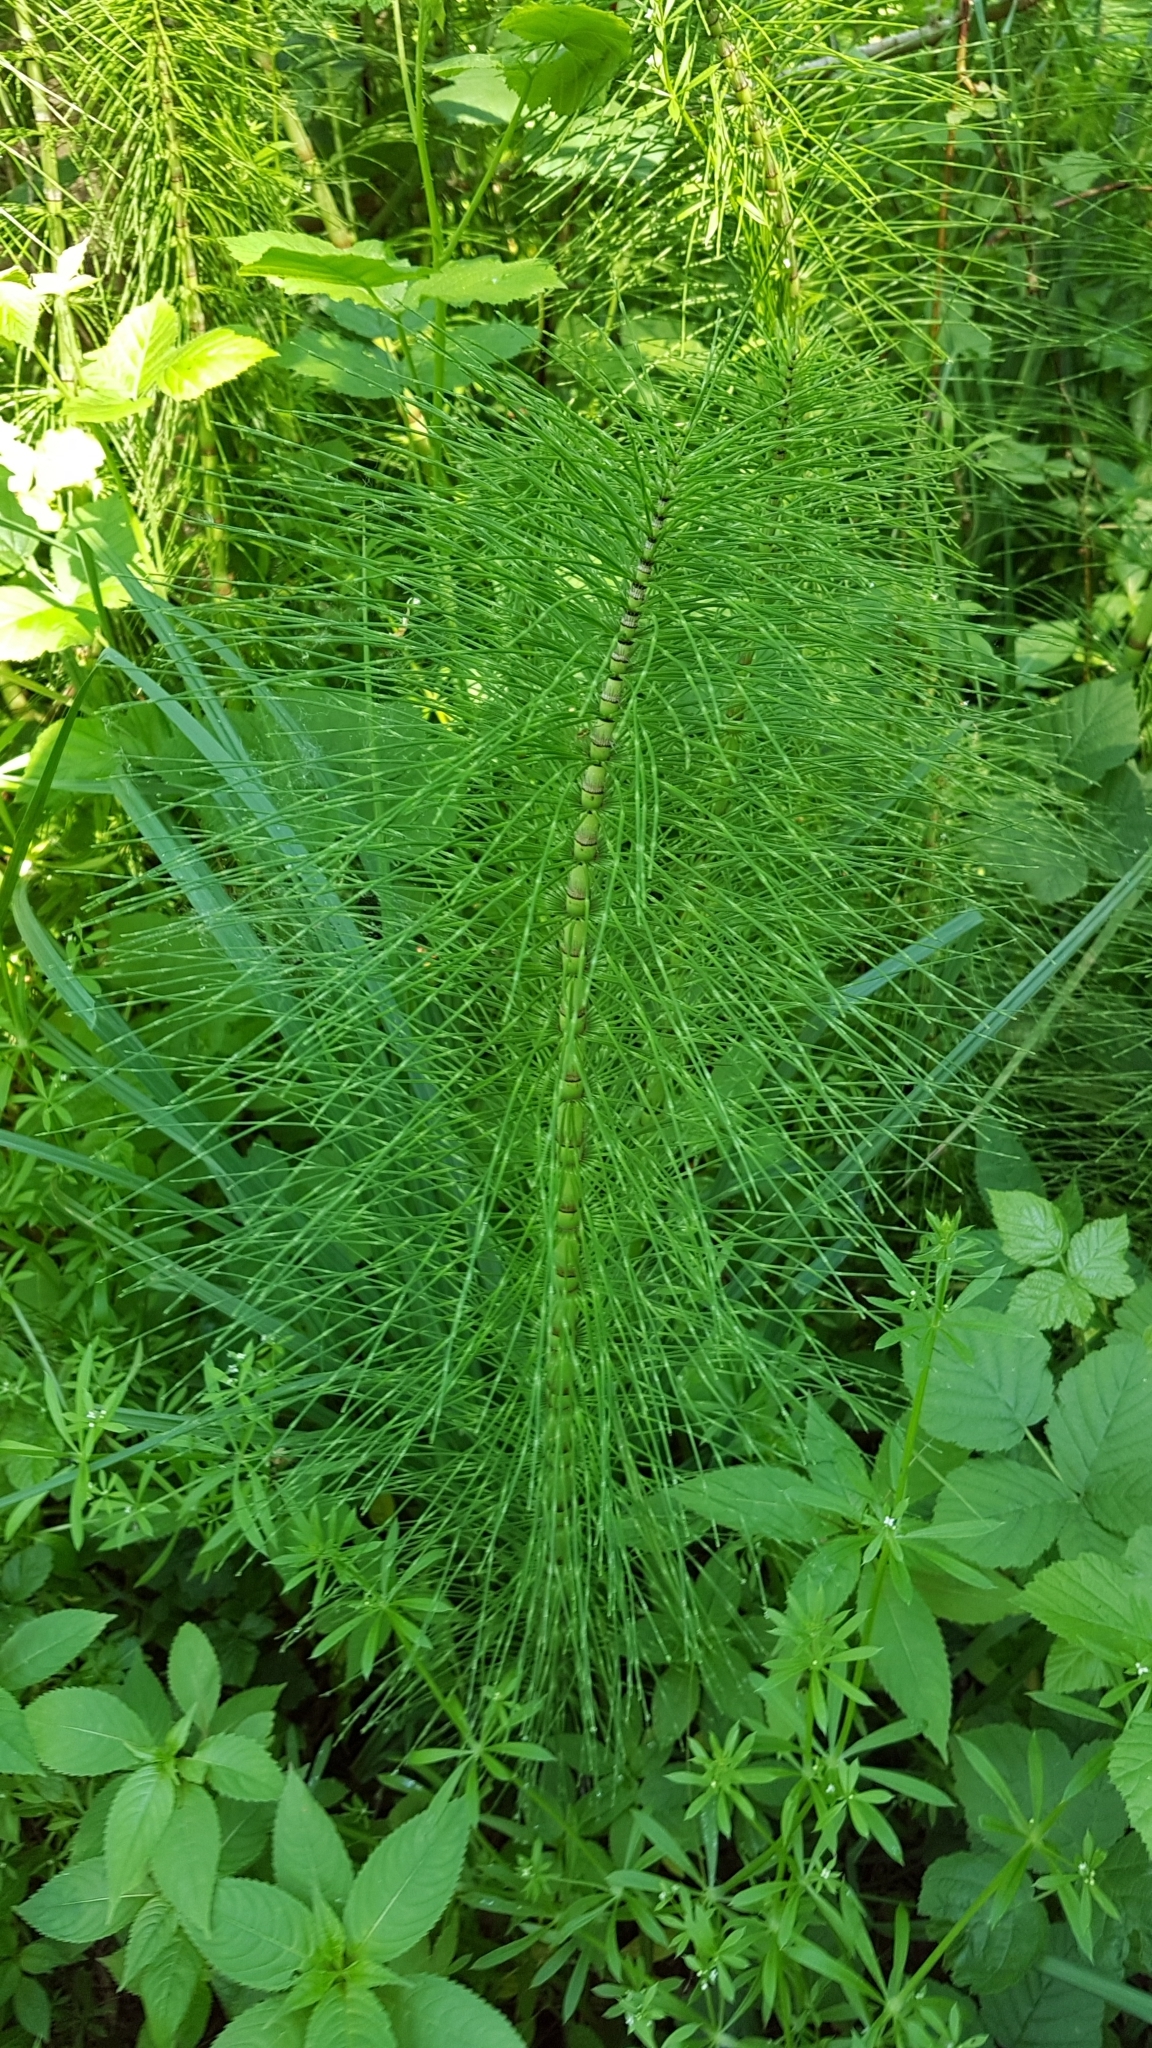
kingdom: Plantae
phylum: Tracheophyta
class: Polypodiopsida
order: Equisetales
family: Equisetaceae
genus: Equisetum
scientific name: Equisetum telmateia
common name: Great horsetail
